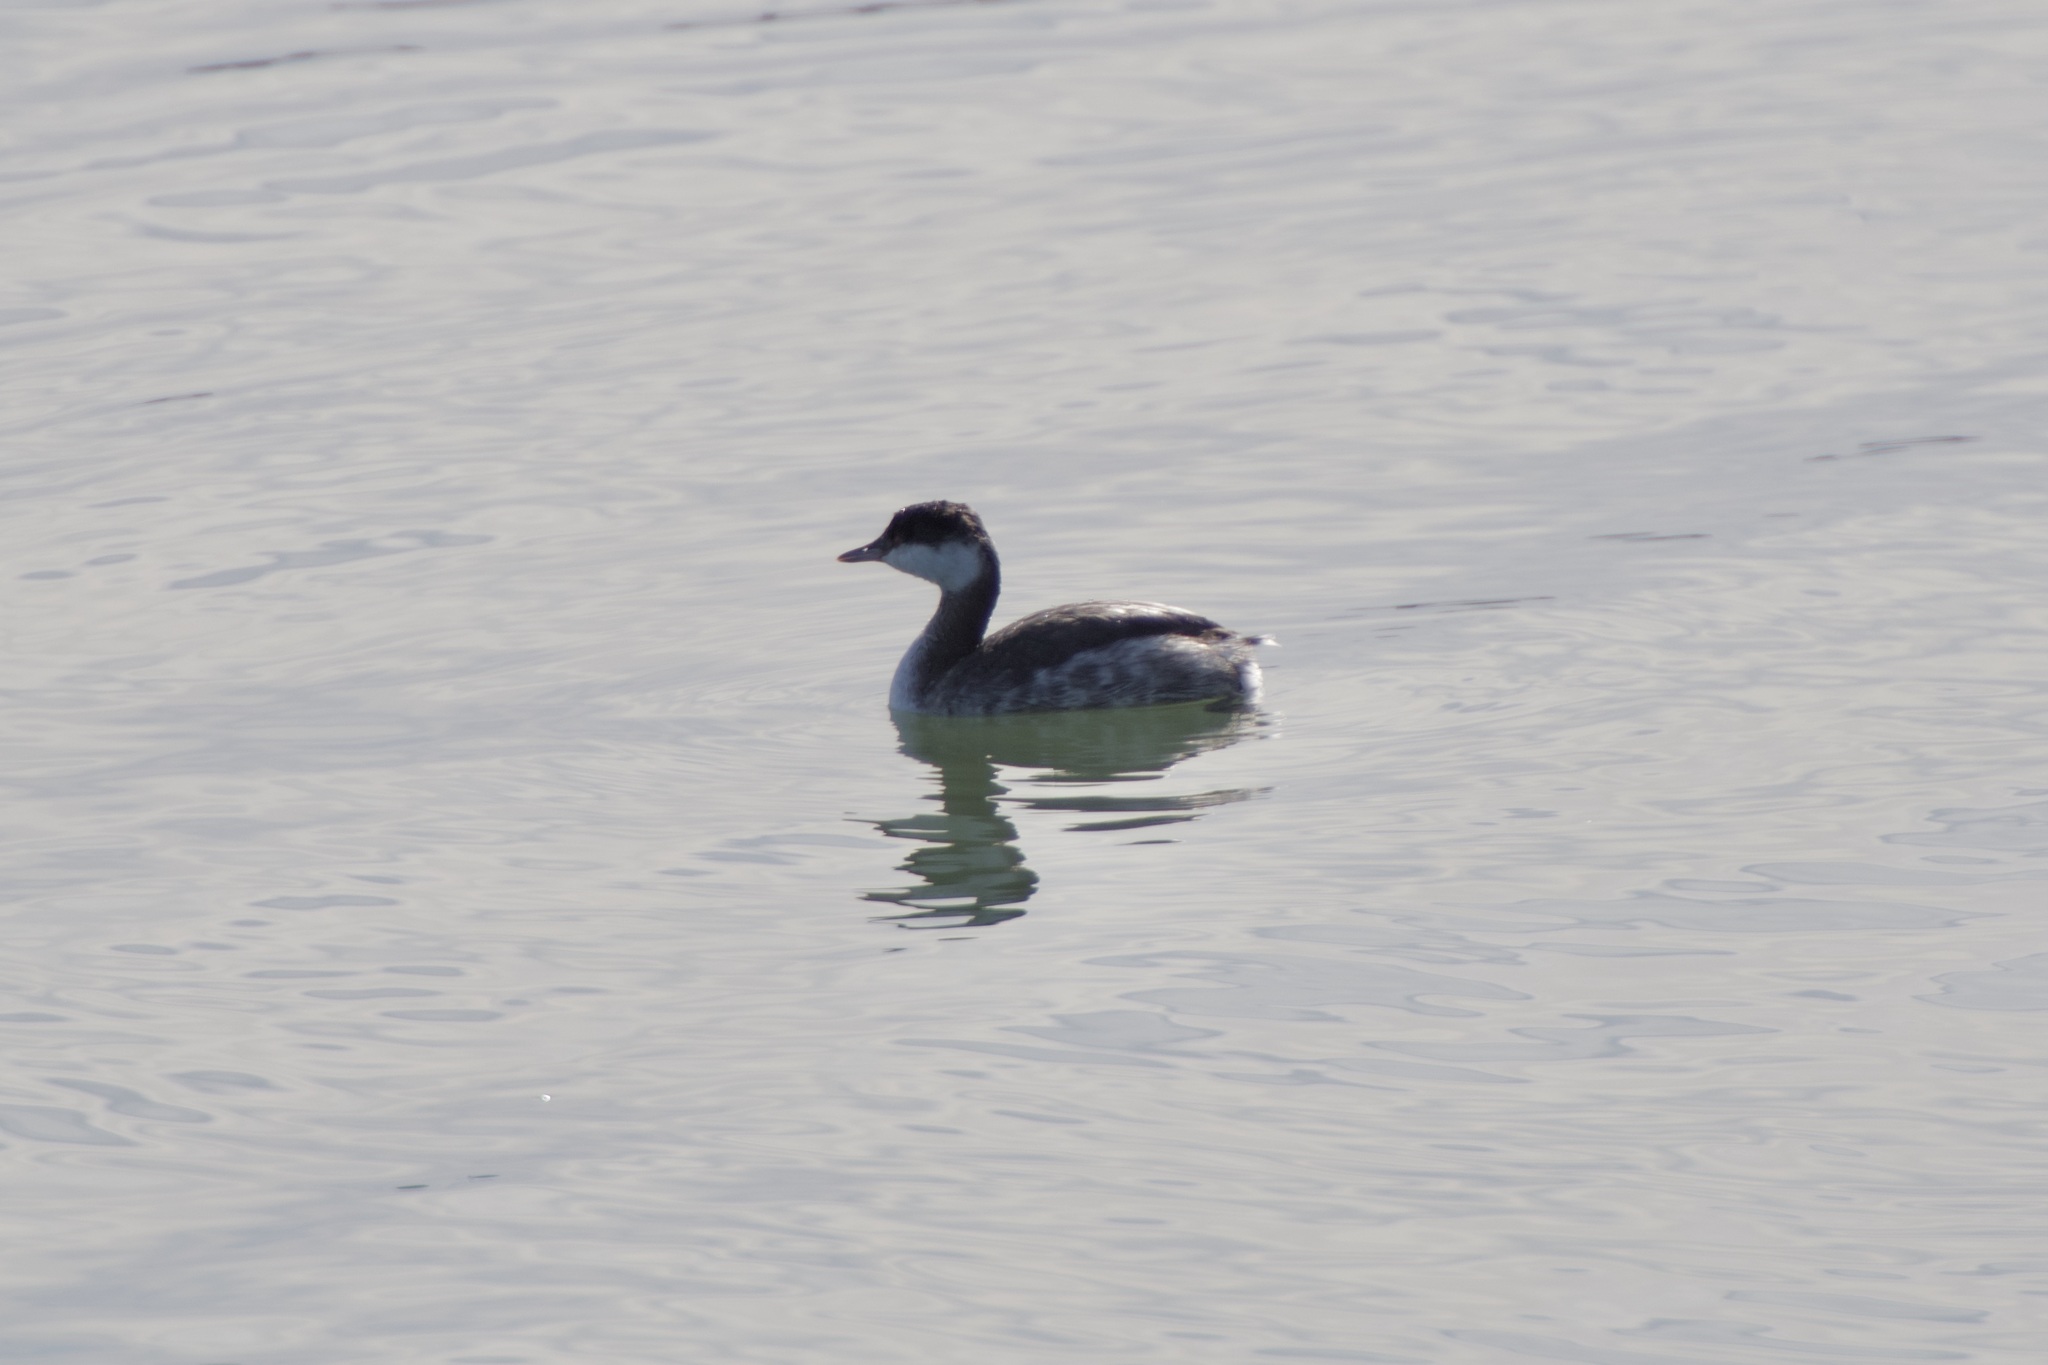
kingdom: Animalia
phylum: Chordata
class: Aves
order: Podicipediformes
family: Podicipedidae
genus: Podiceps
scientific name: Podiceps auritus
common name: Horned grebe
